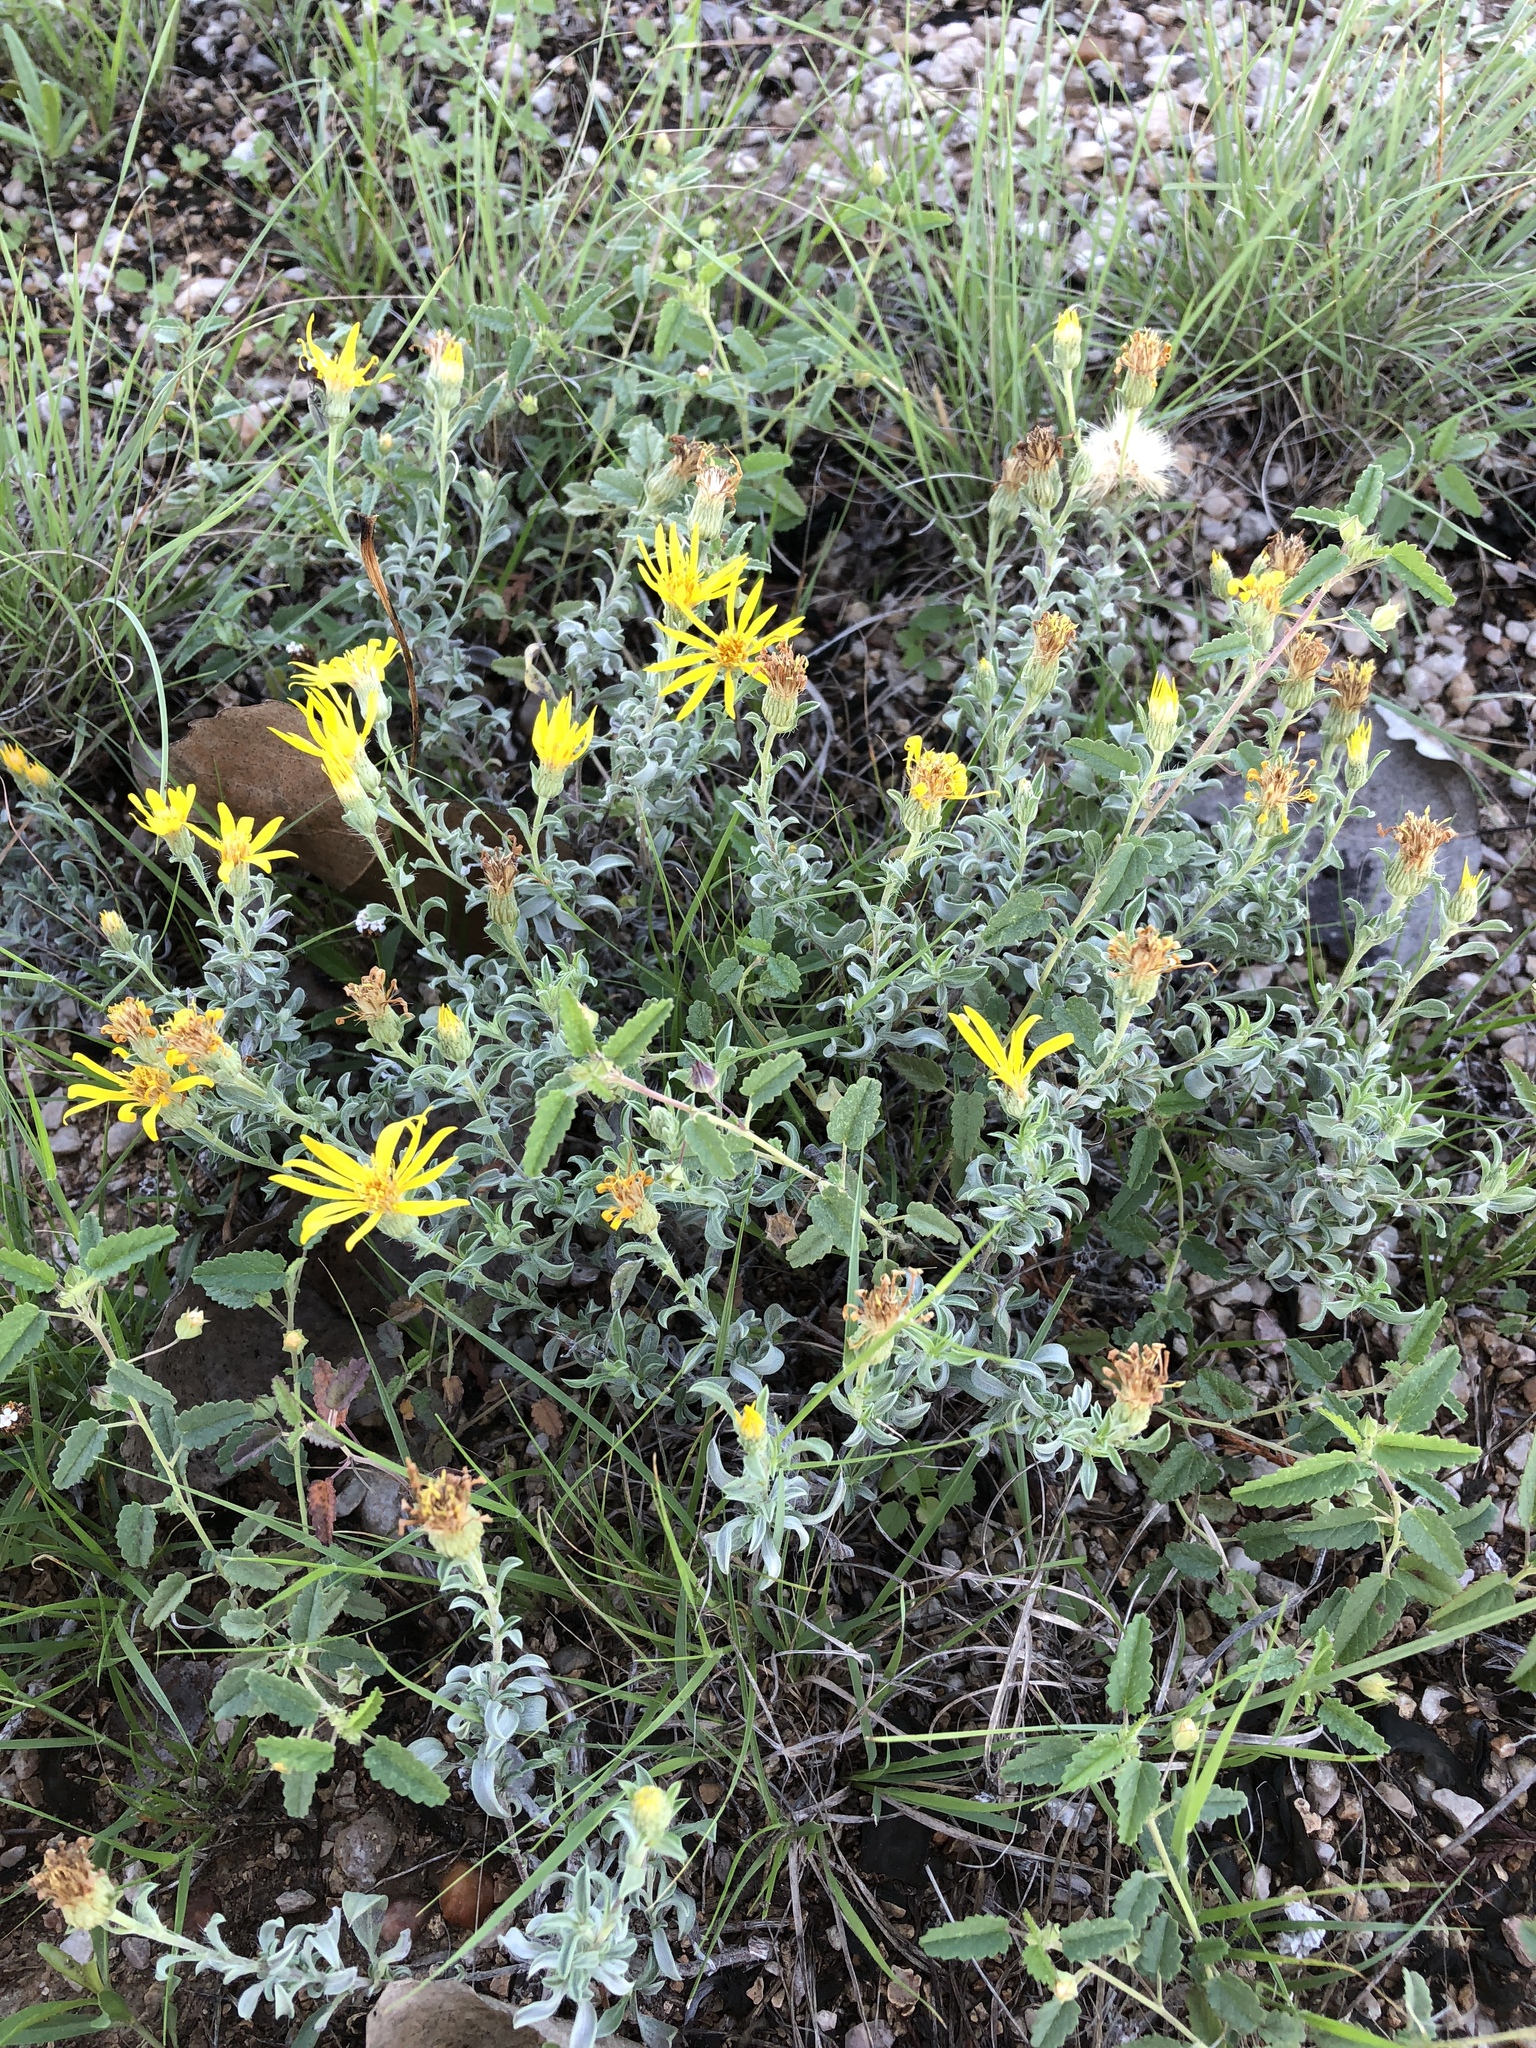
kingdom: Plantae
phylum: Tracheophyta
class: Magnoliopsida
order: Asterales
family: Asteraceae
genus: Heterotheca
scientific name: Heterotheca canescens
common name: Hoary golden-aster
